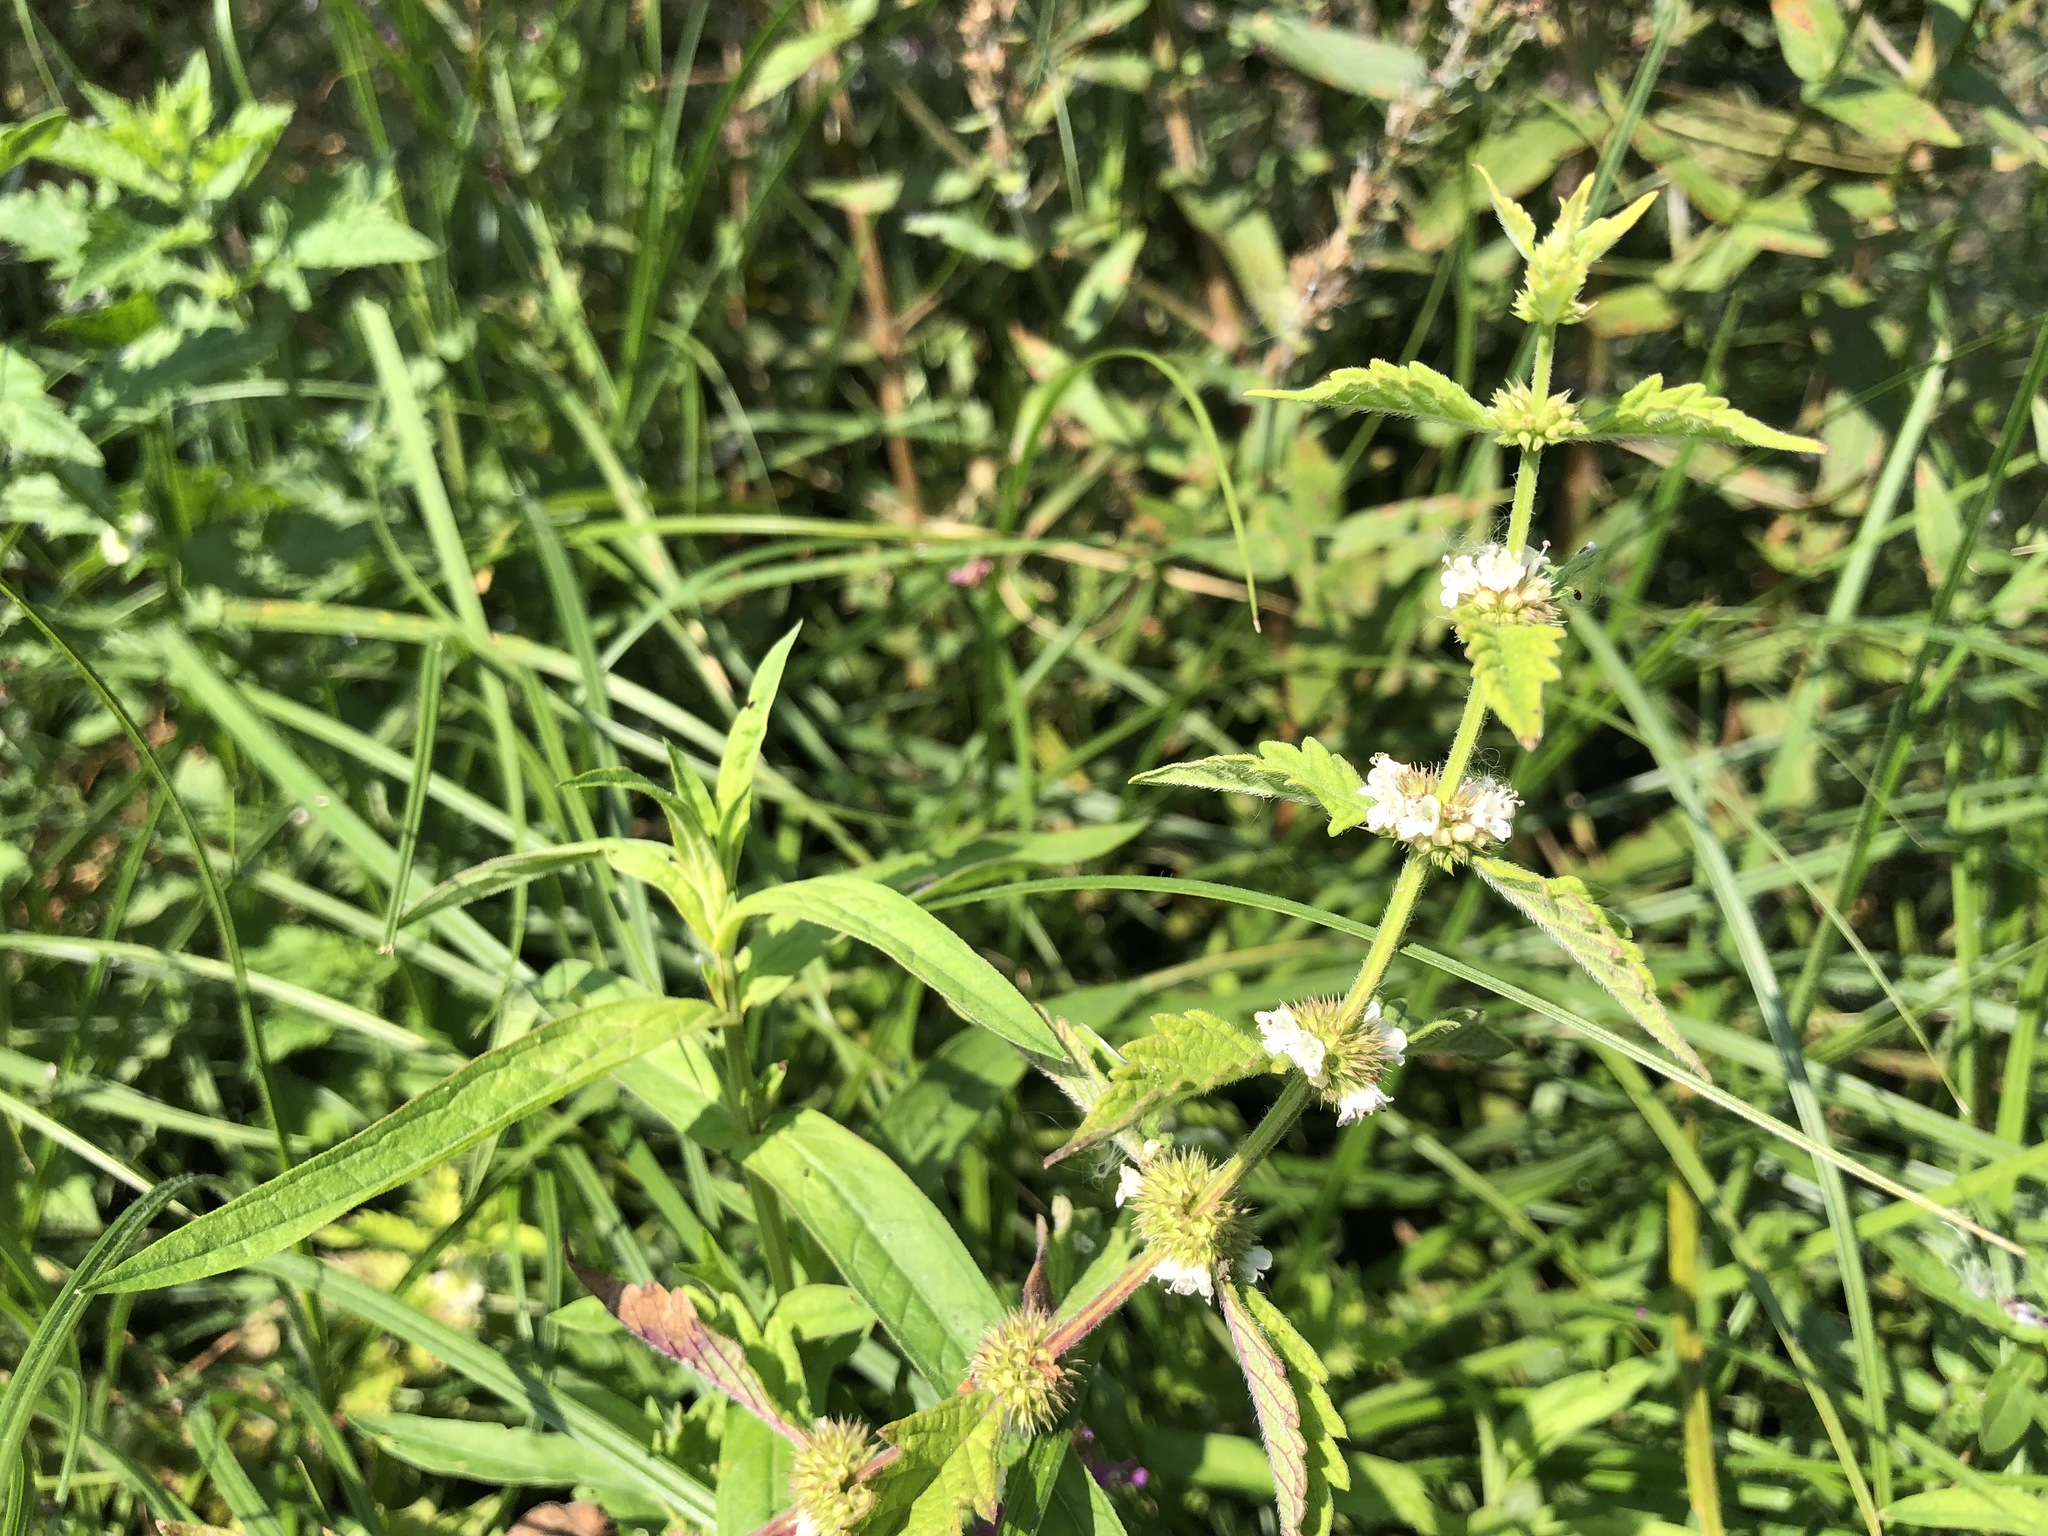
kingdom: Plantae
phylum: Tracheophyta
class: Magnoliopsida
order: Lamiales
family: Lamiaceae
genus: Lycopus
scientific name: Lycopus europaeus
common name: European bugleweed
